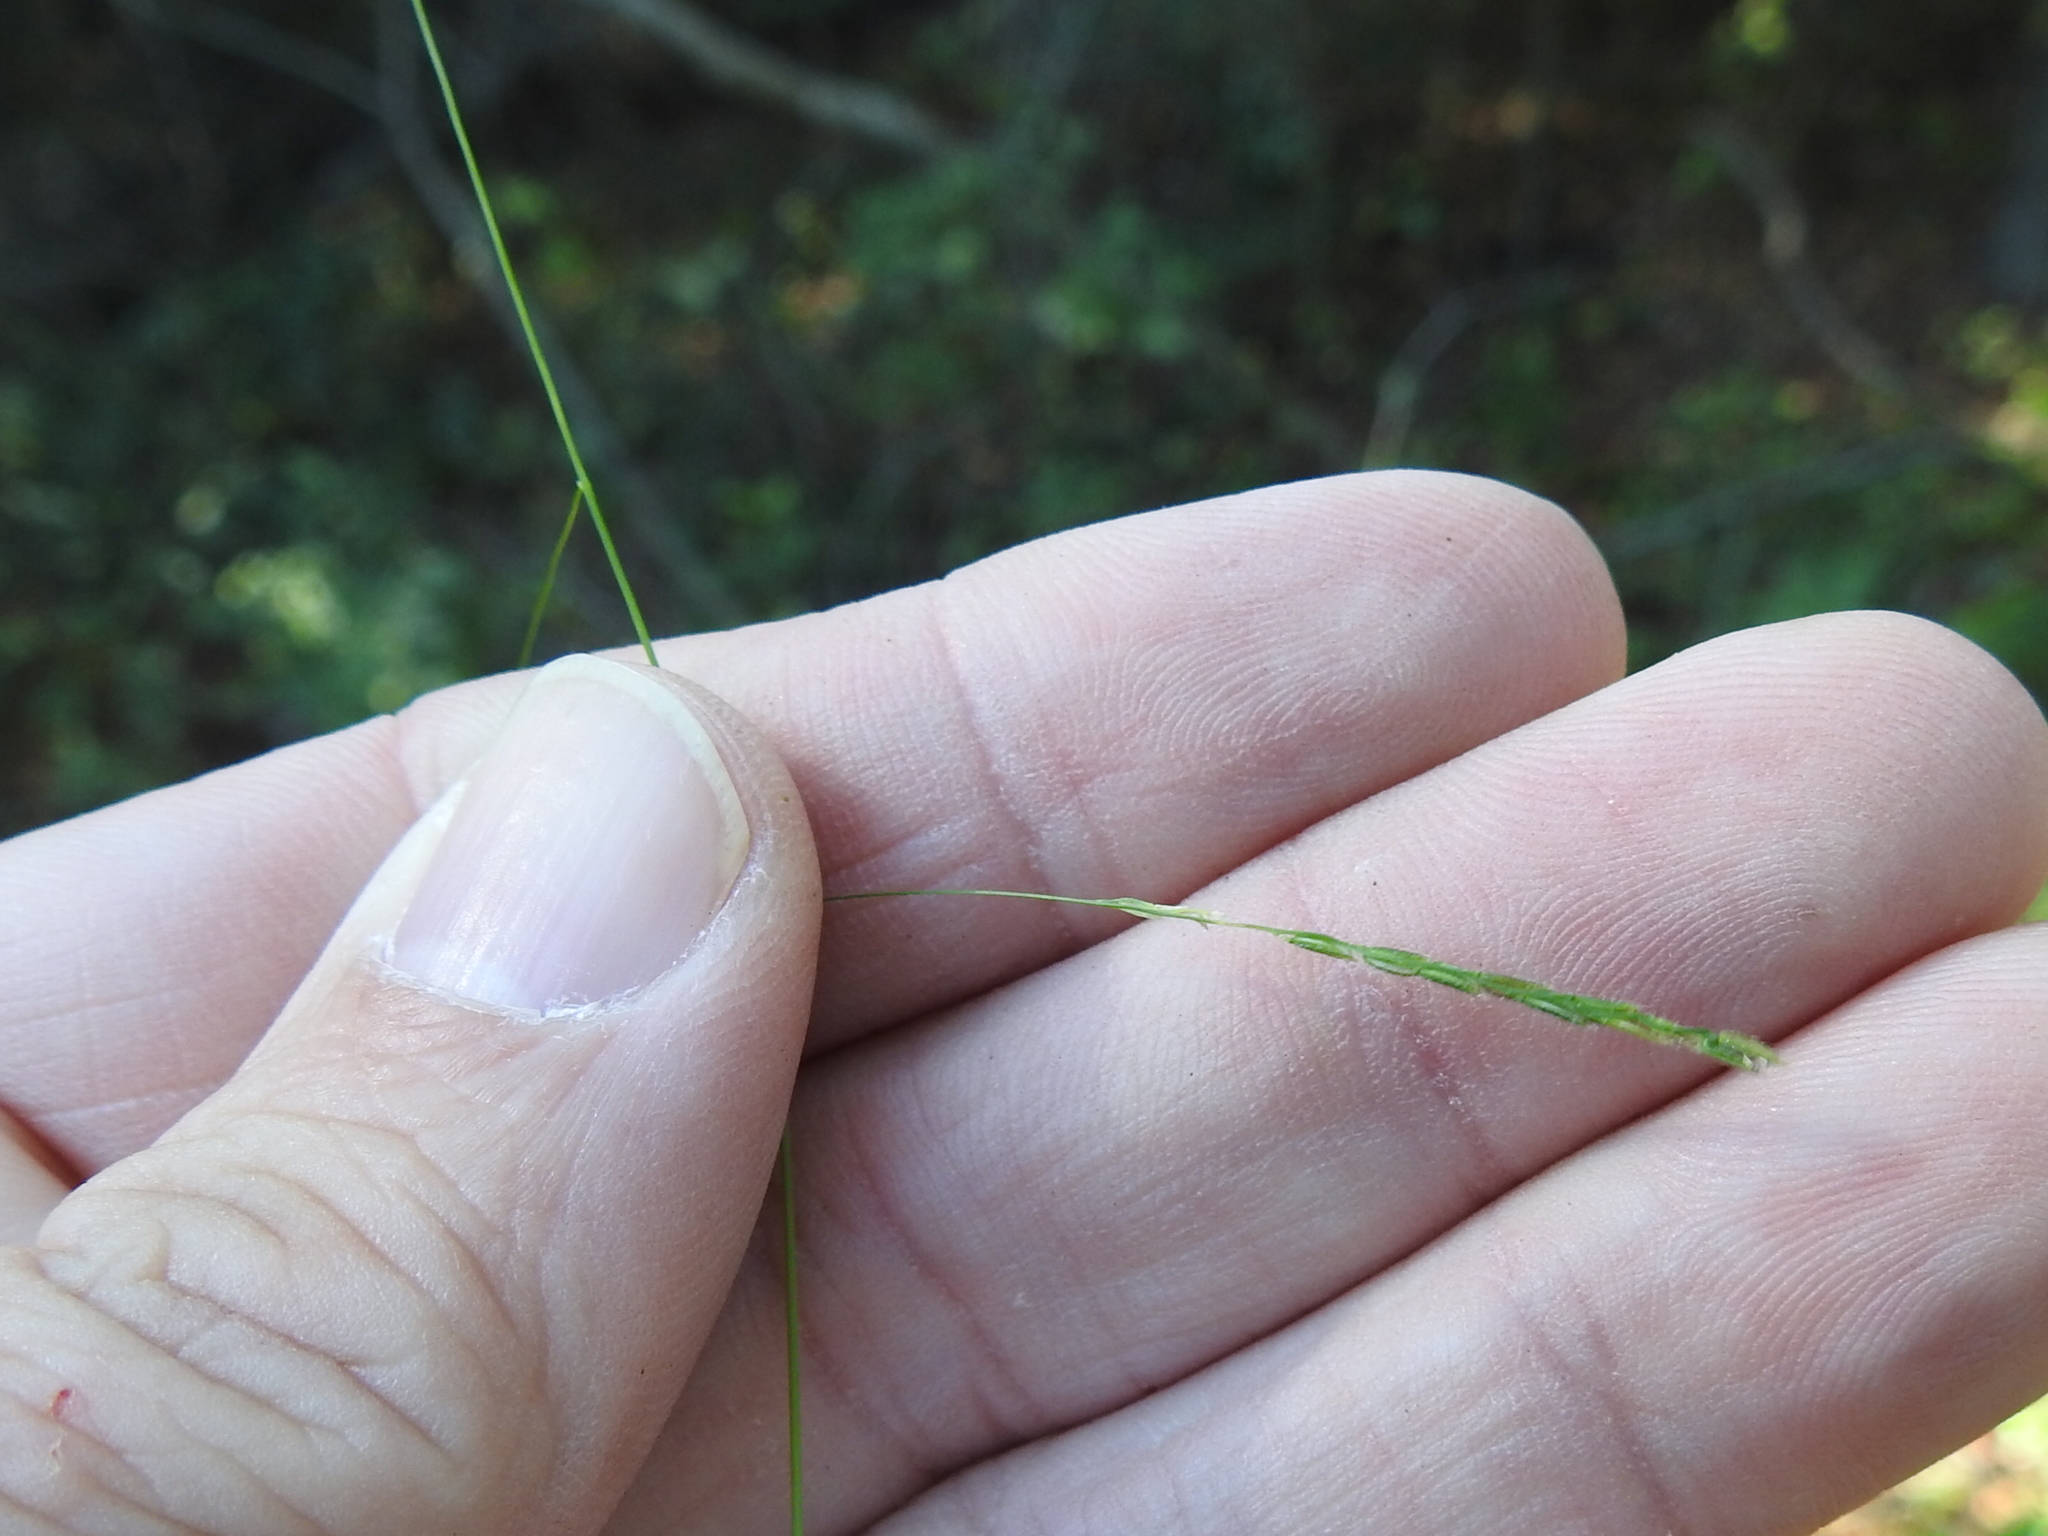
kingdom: Plantae
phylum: Tracheophyta
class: Liliopsida
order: Poales
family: Poaceae
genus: Leersia
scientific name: Leersia virginica
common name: White cutgrass
